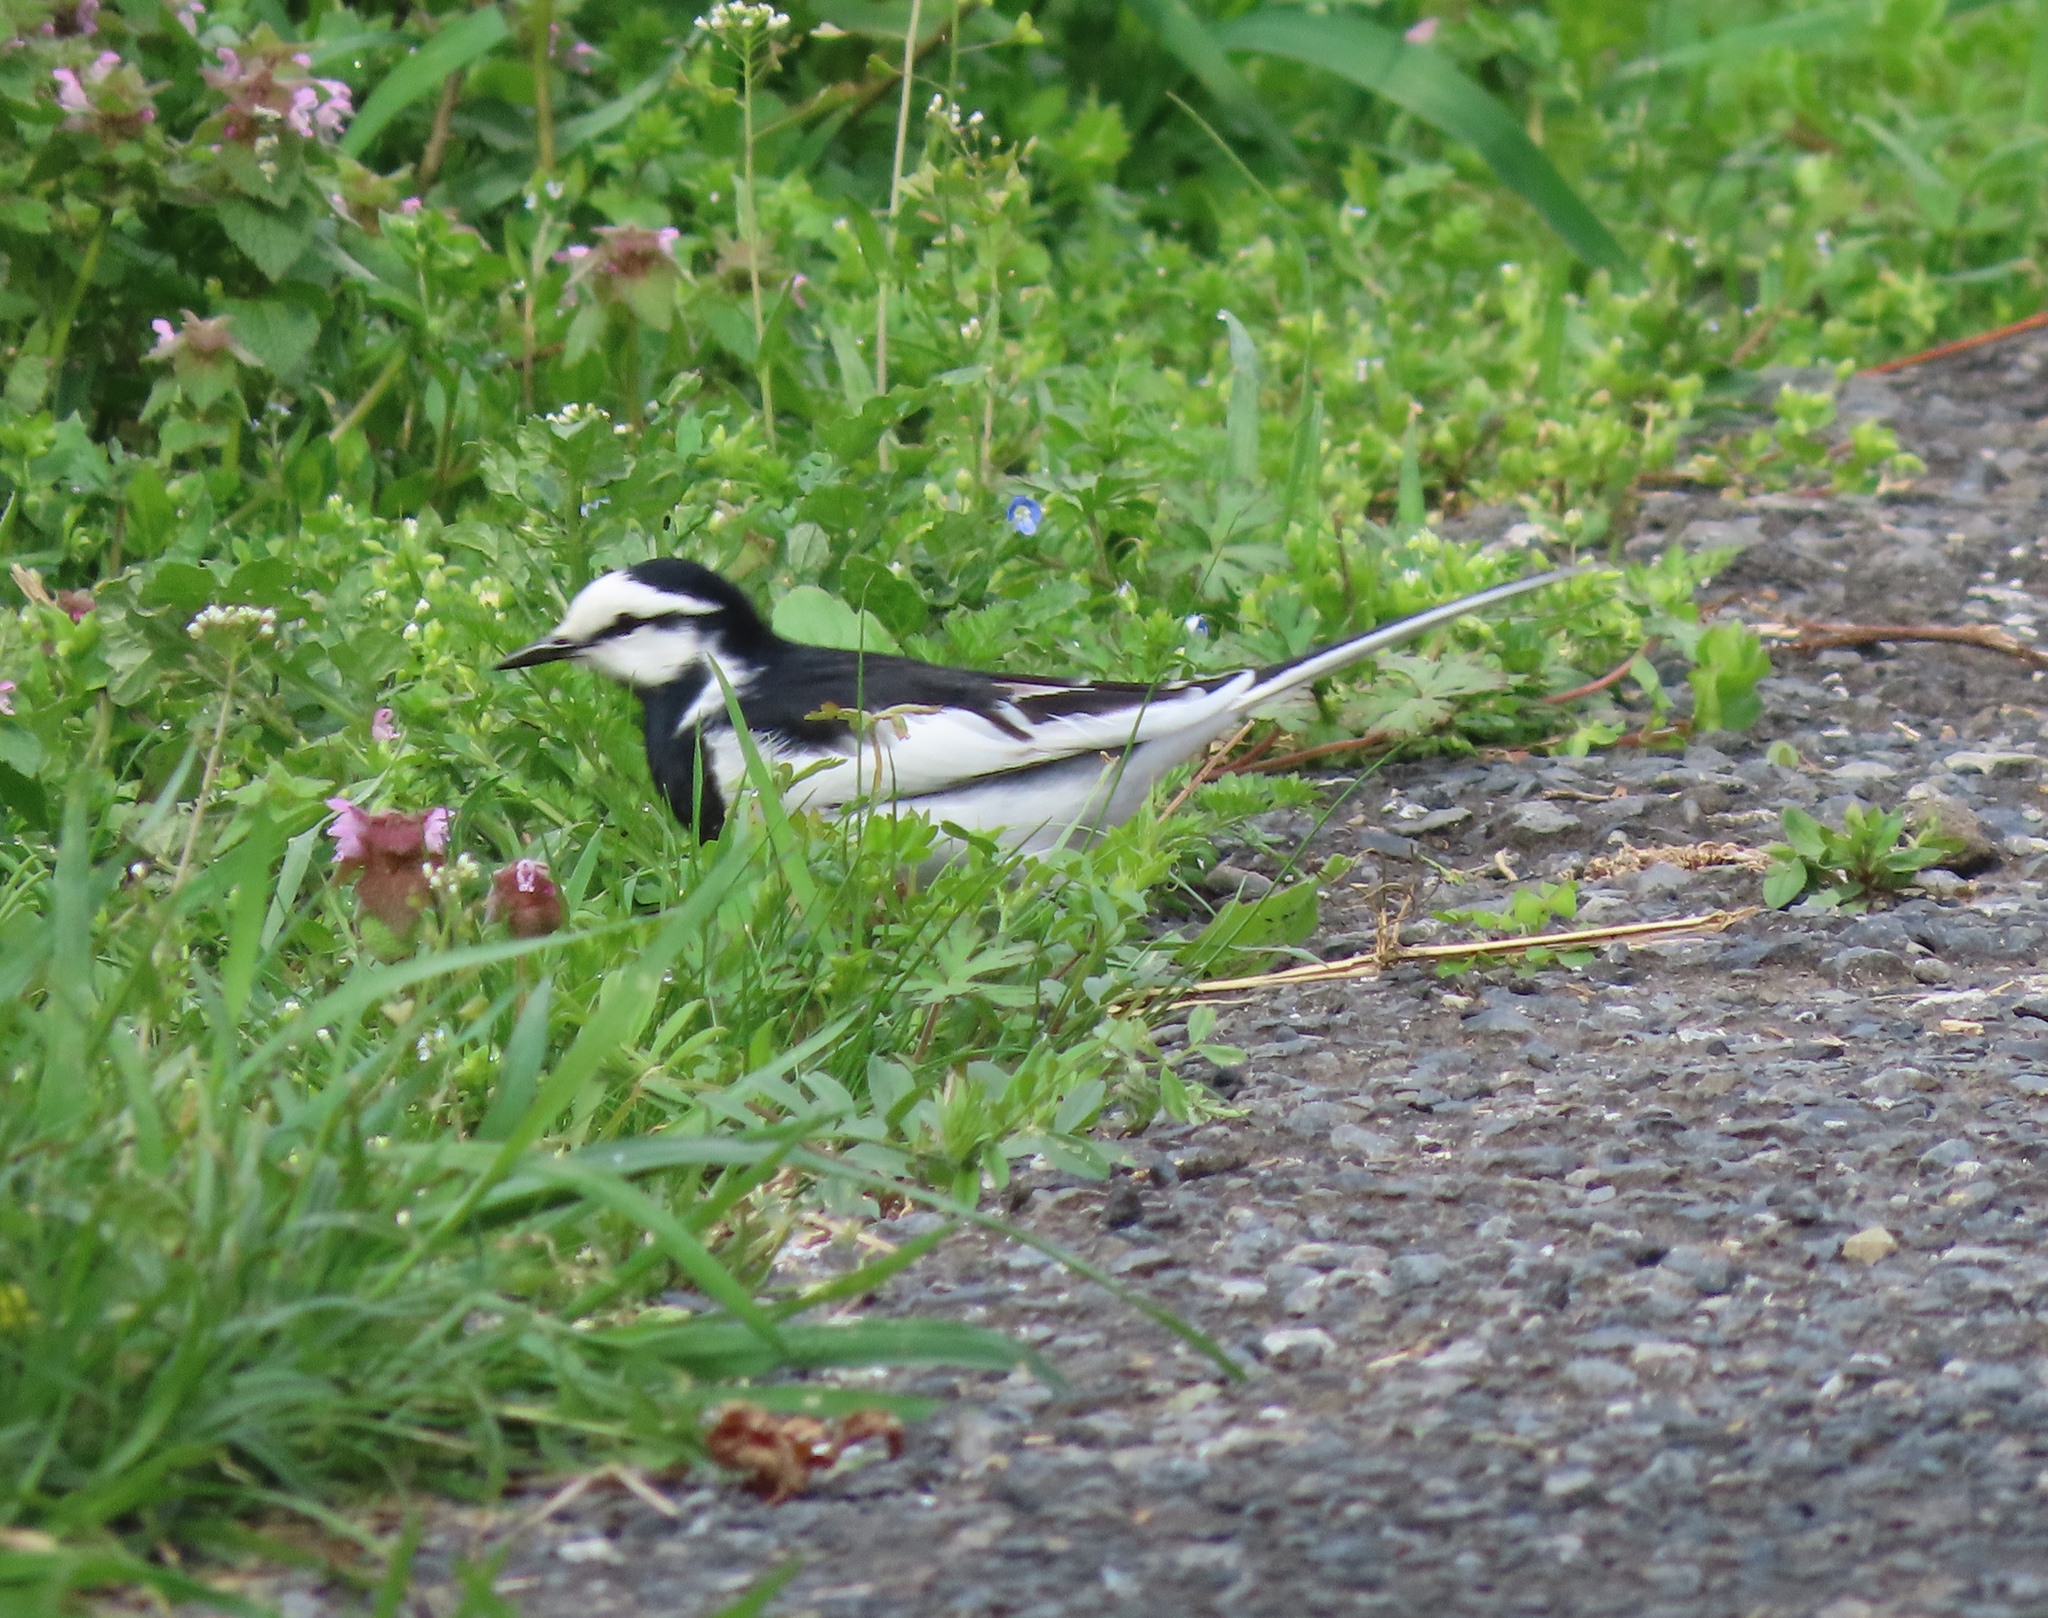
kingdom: Animalia
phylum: Chordata
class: Aves
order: Passeriformes
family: Motacillidae
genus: Motacilla
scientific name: Motacilla alba
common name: White wagtail
